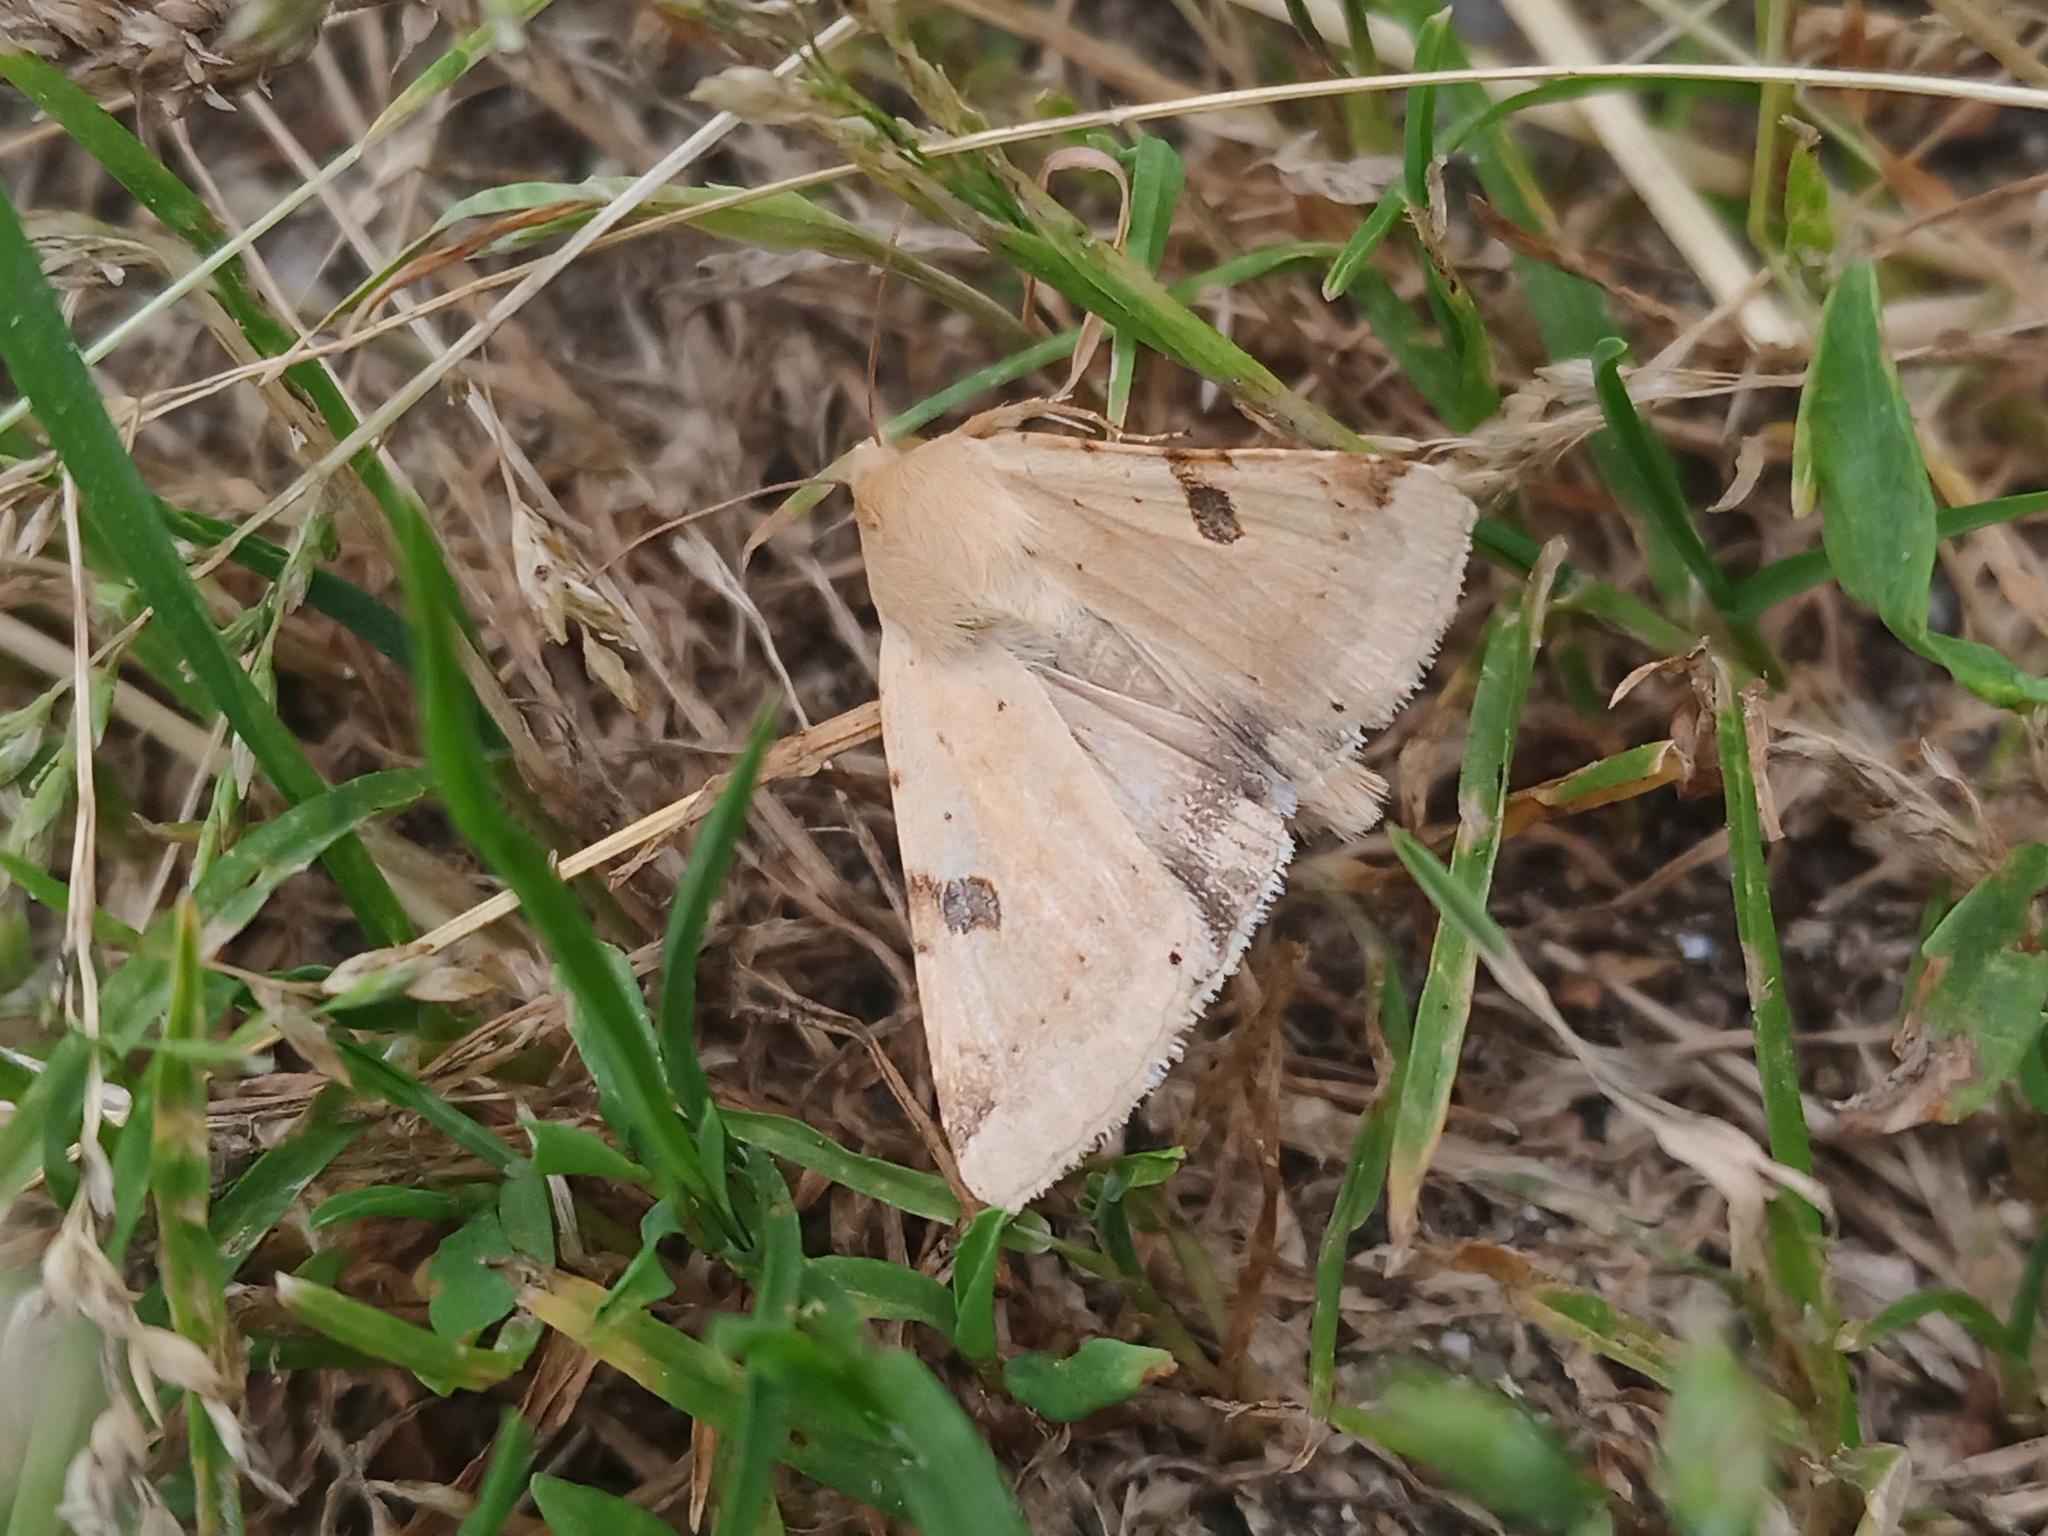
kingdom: Animalia
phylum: Arthropoda
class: Insecta
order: Lepidoptera
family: Noctuidae
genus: Heliothis
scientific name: Heliothis peltigera
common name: Bordered straw
